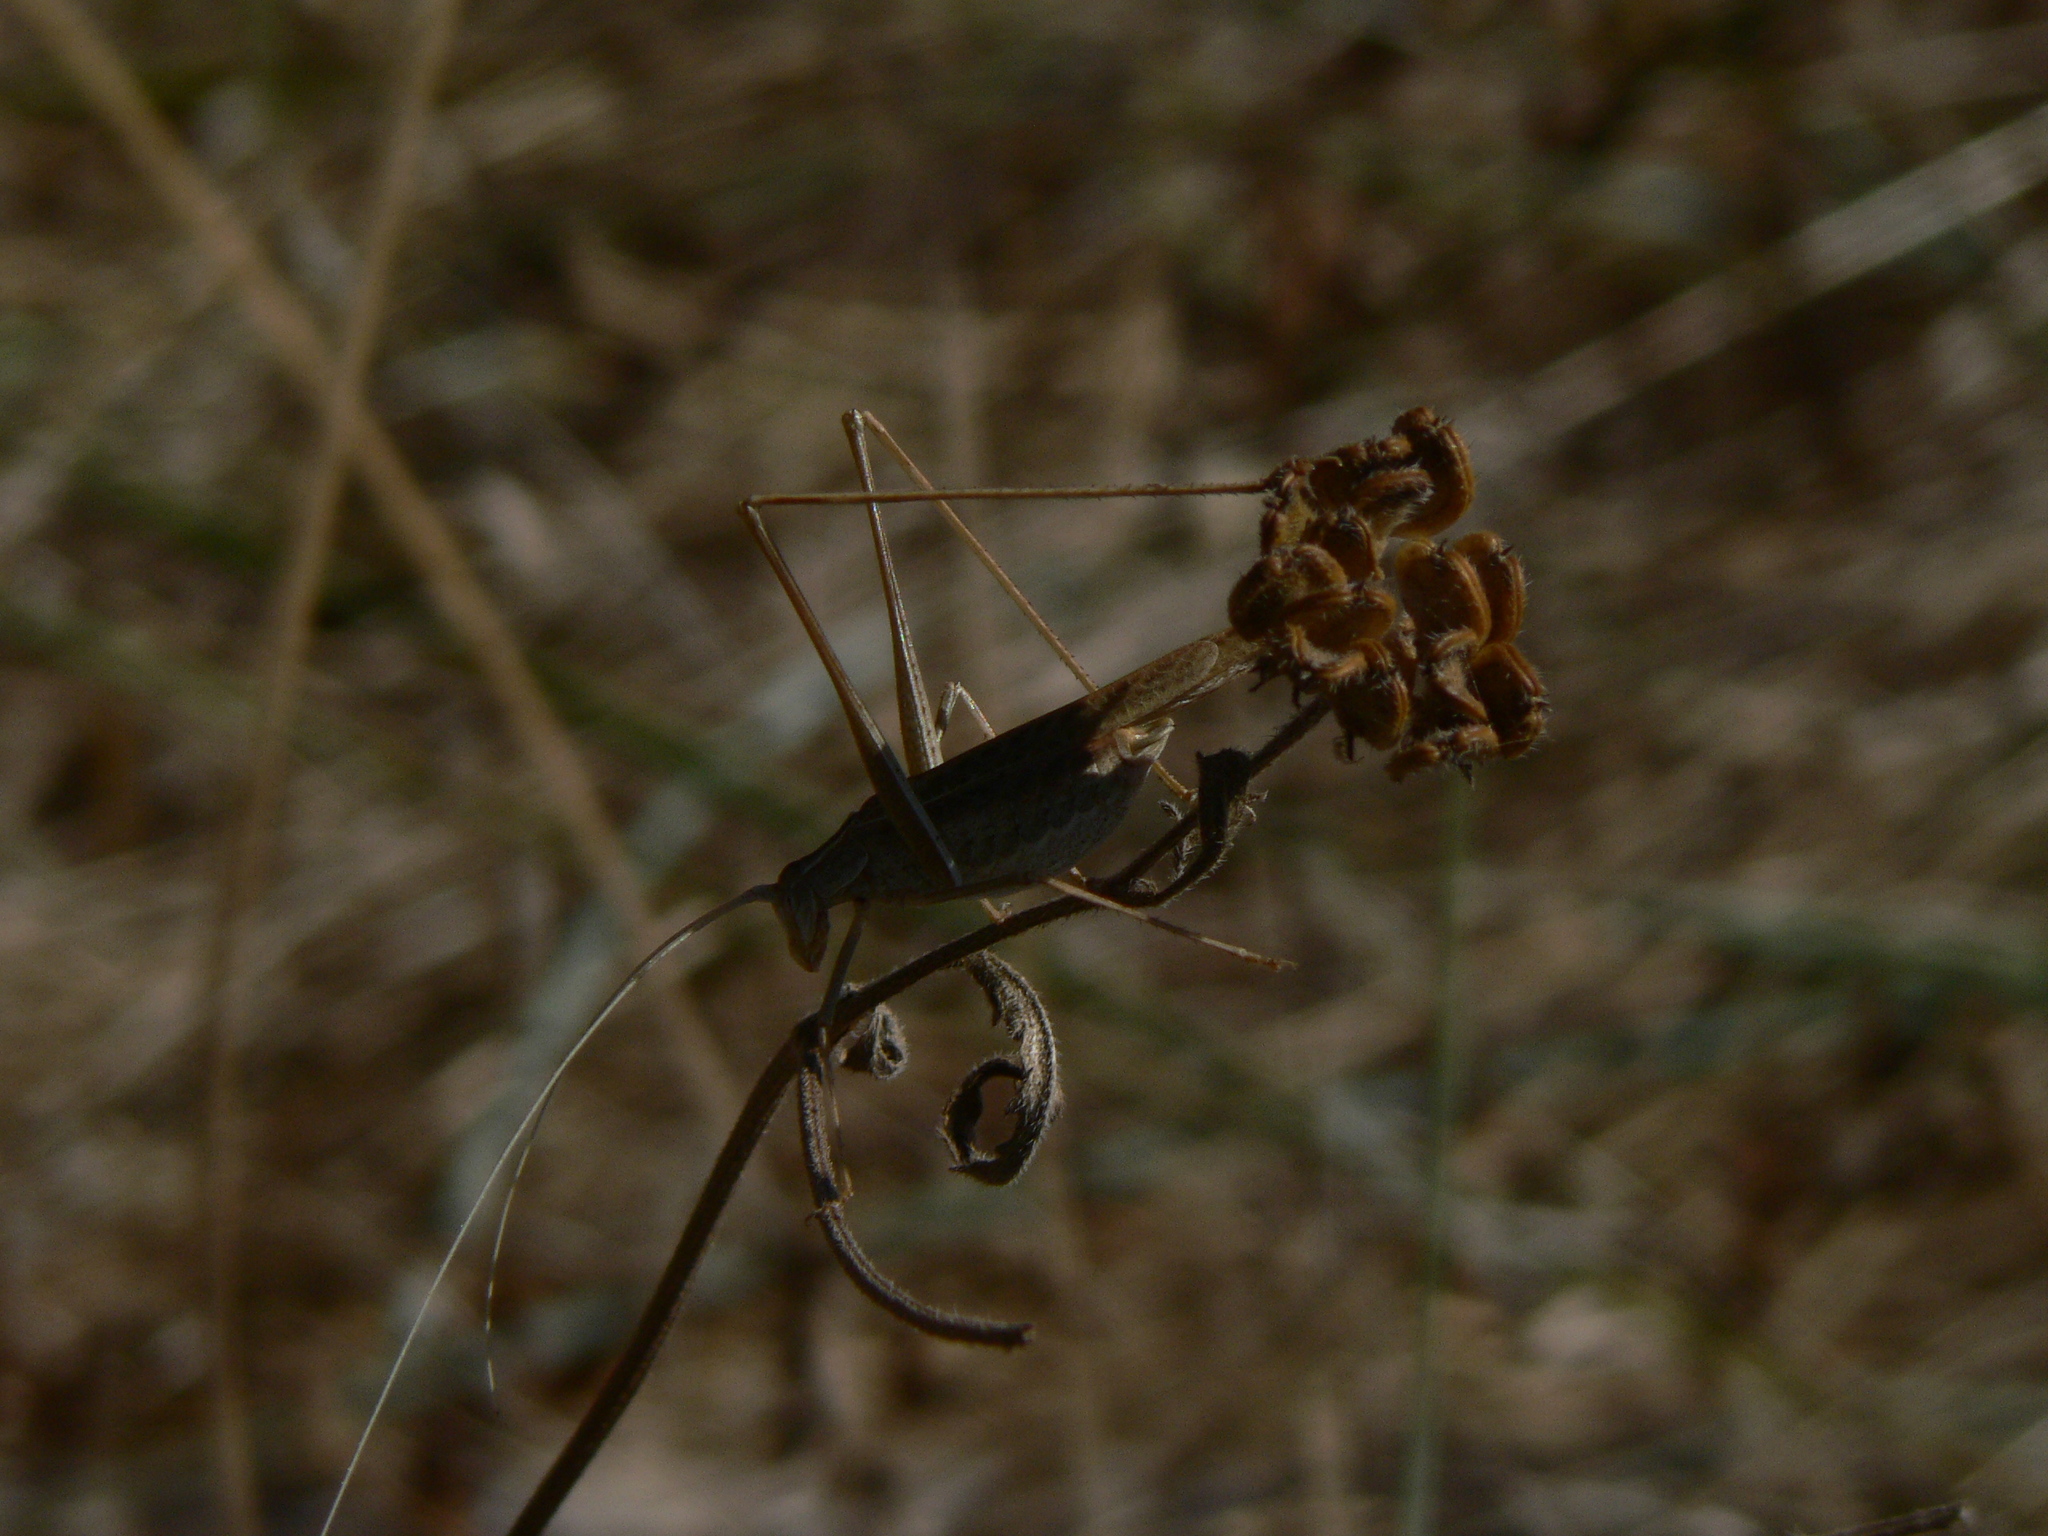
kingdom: Animalia
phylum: Arthropoda
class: Insecta
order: Orthoptera
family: Tettigoniidae
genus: Tylopsis
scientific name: Tylopsis lilifolia
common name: Lily bush-cricket
